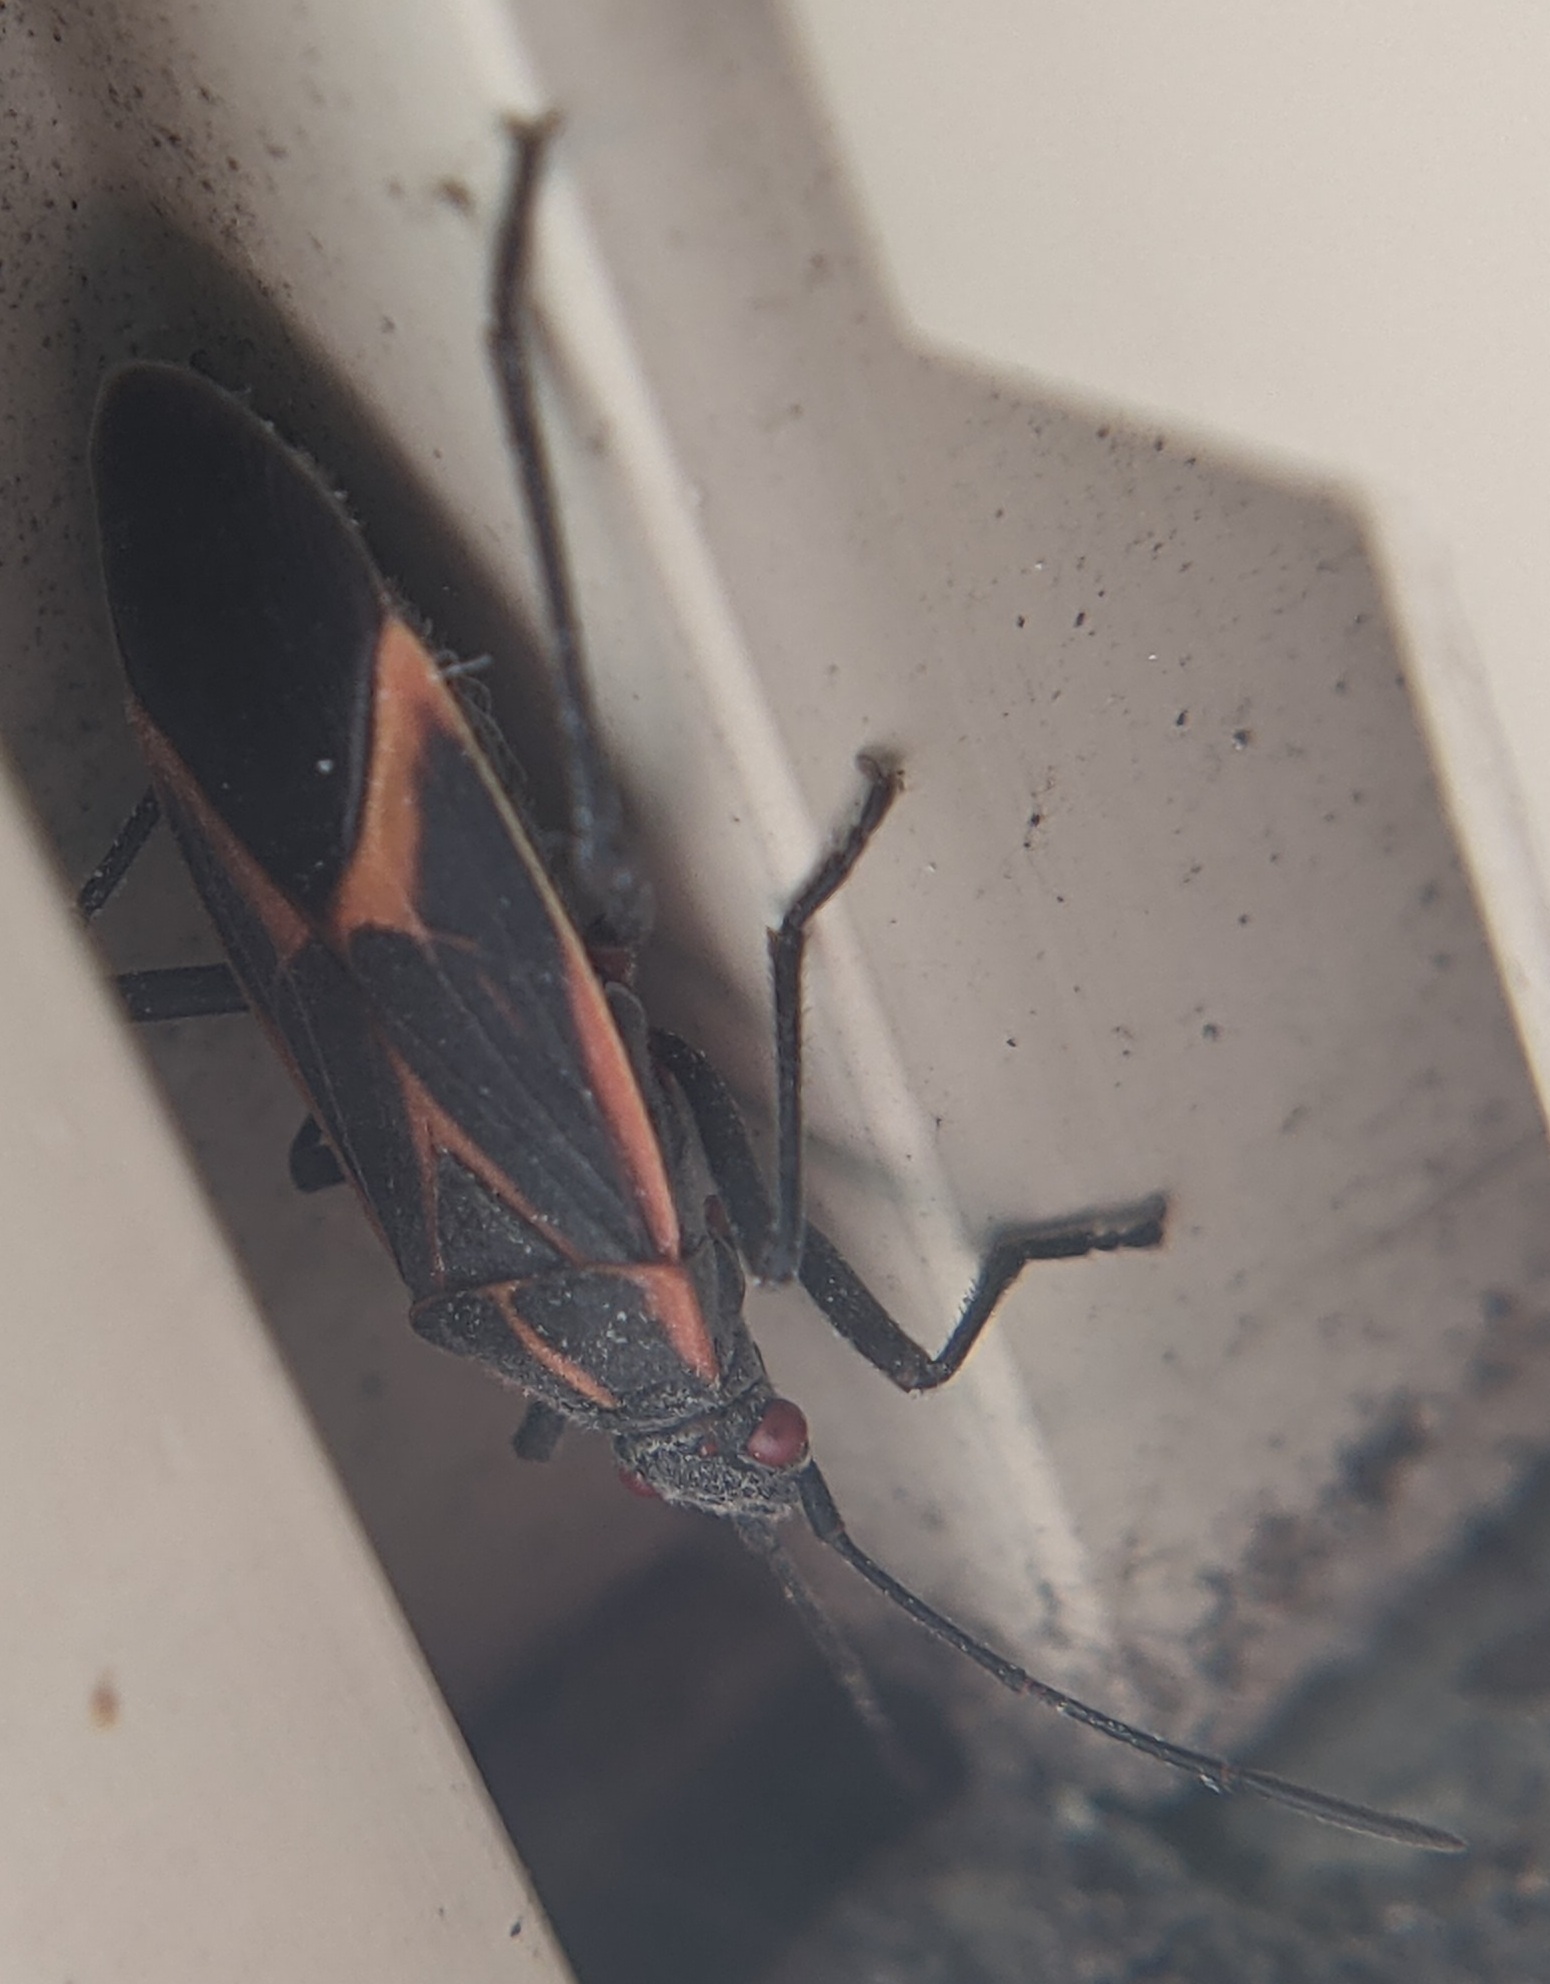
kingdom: Animalia
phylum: Arthropoda
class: Insecta
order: Hemiptera
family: Rhopalidae
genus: Boisea
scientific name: Boisea trivittata
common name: Boxelder bug
